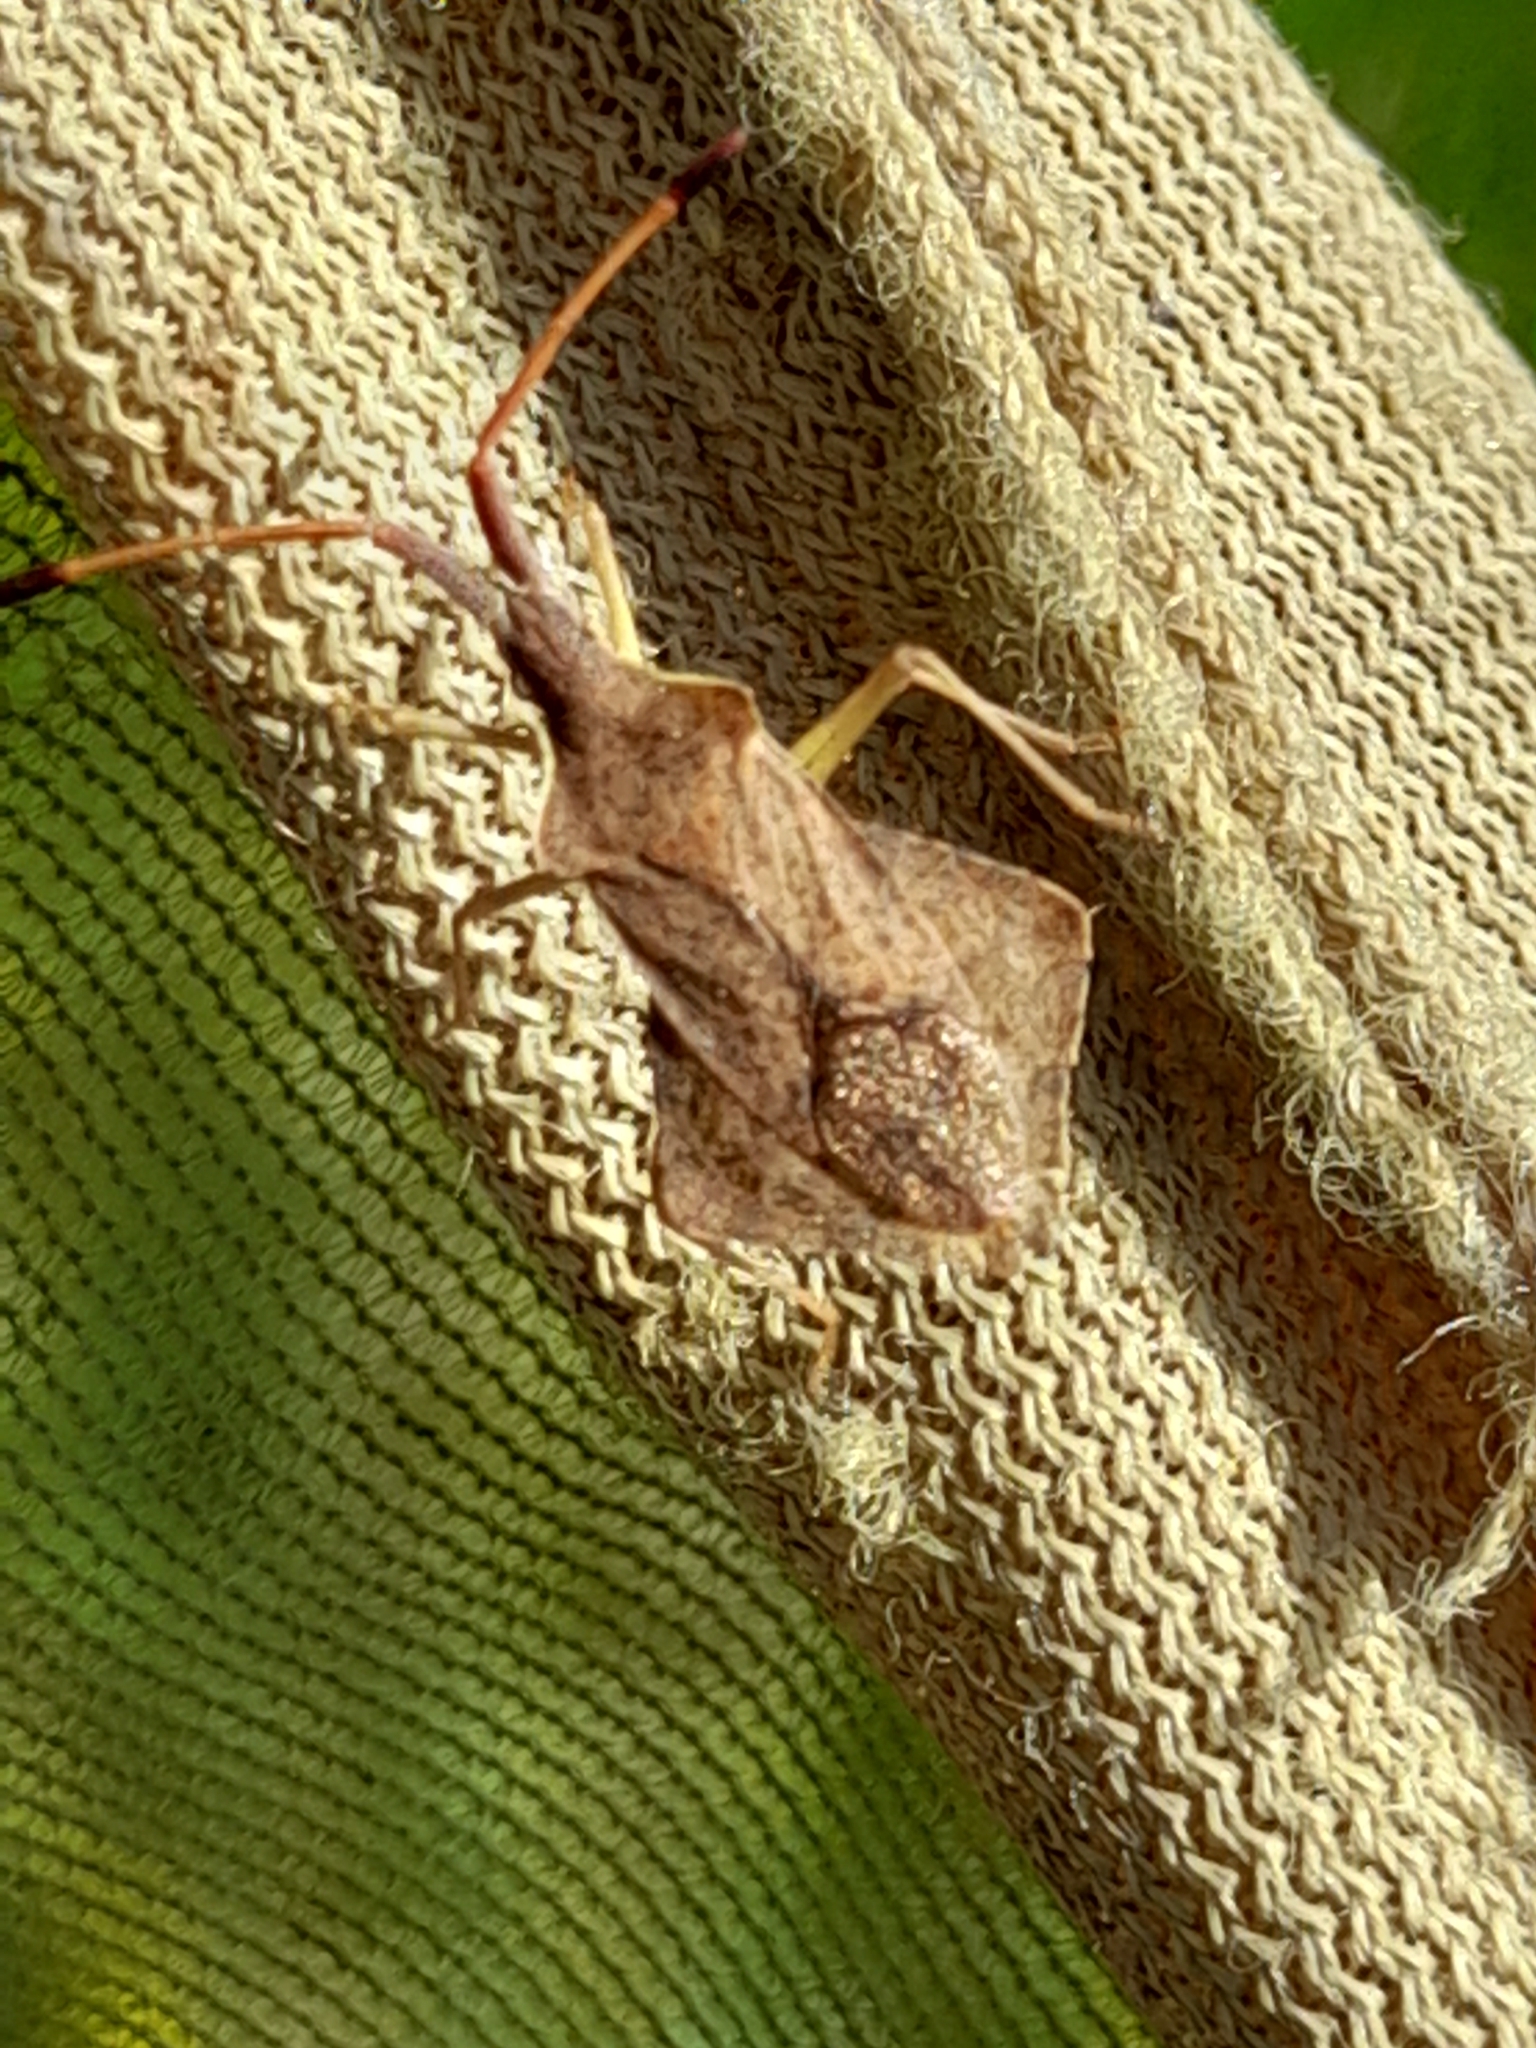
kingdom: Animalia
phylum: Arthropoda
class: Insecta
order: Hemiptera
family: Coreidae
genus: Syromastus
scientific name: Syromastus rhombeus
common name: Rhombic leatherbug
